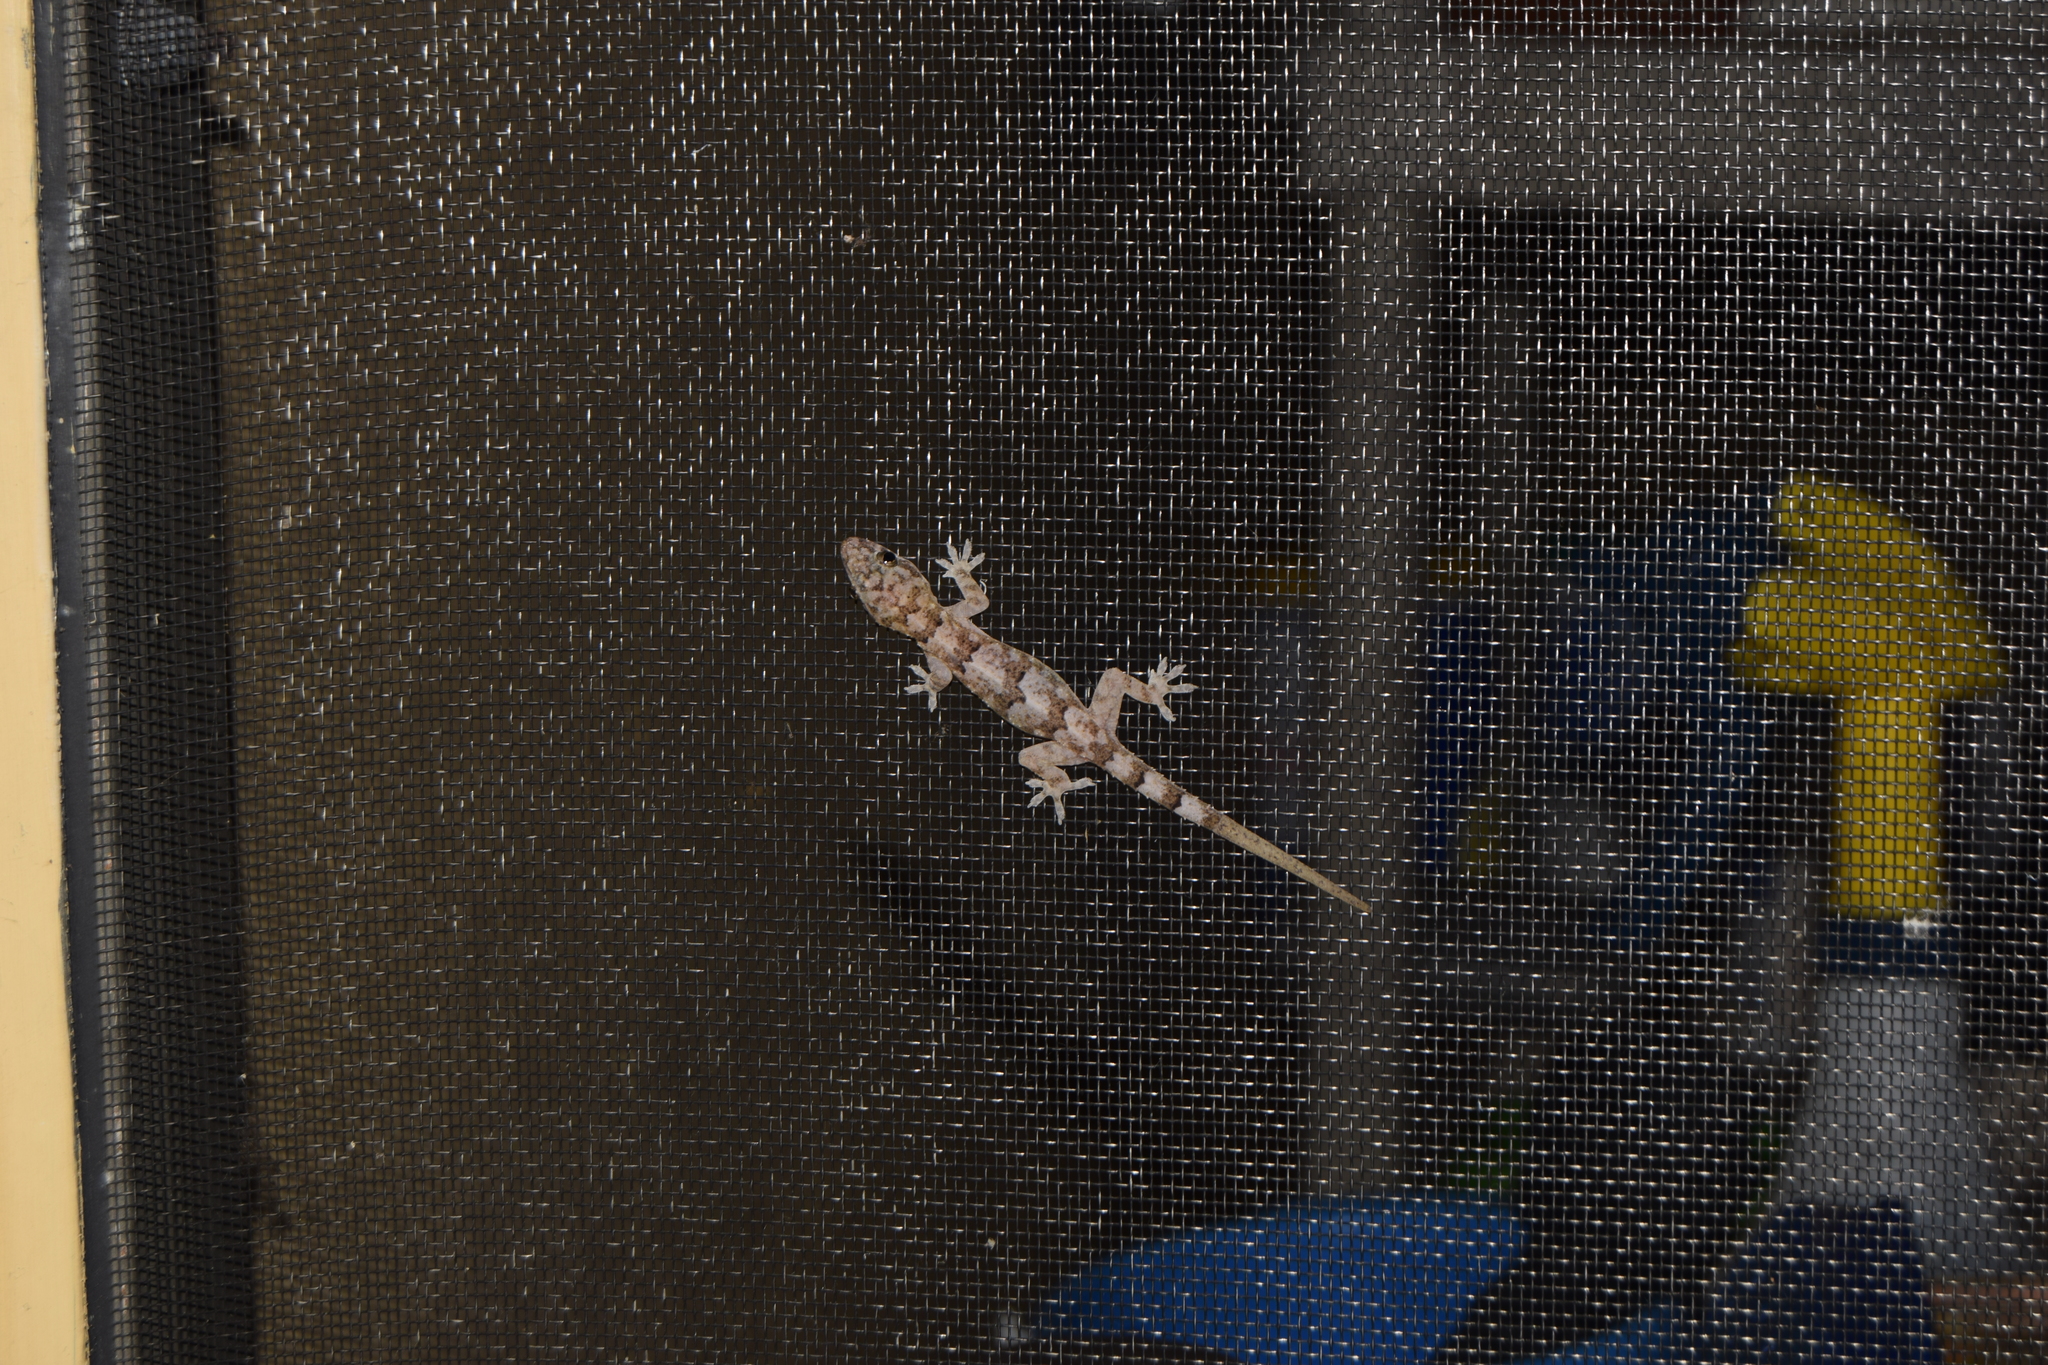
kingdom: Animalia
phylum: Chordata
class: Squamata
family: Gekkonidae
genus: Hemidactylus
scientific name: Hemidactylus mabouia
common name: House gecko
